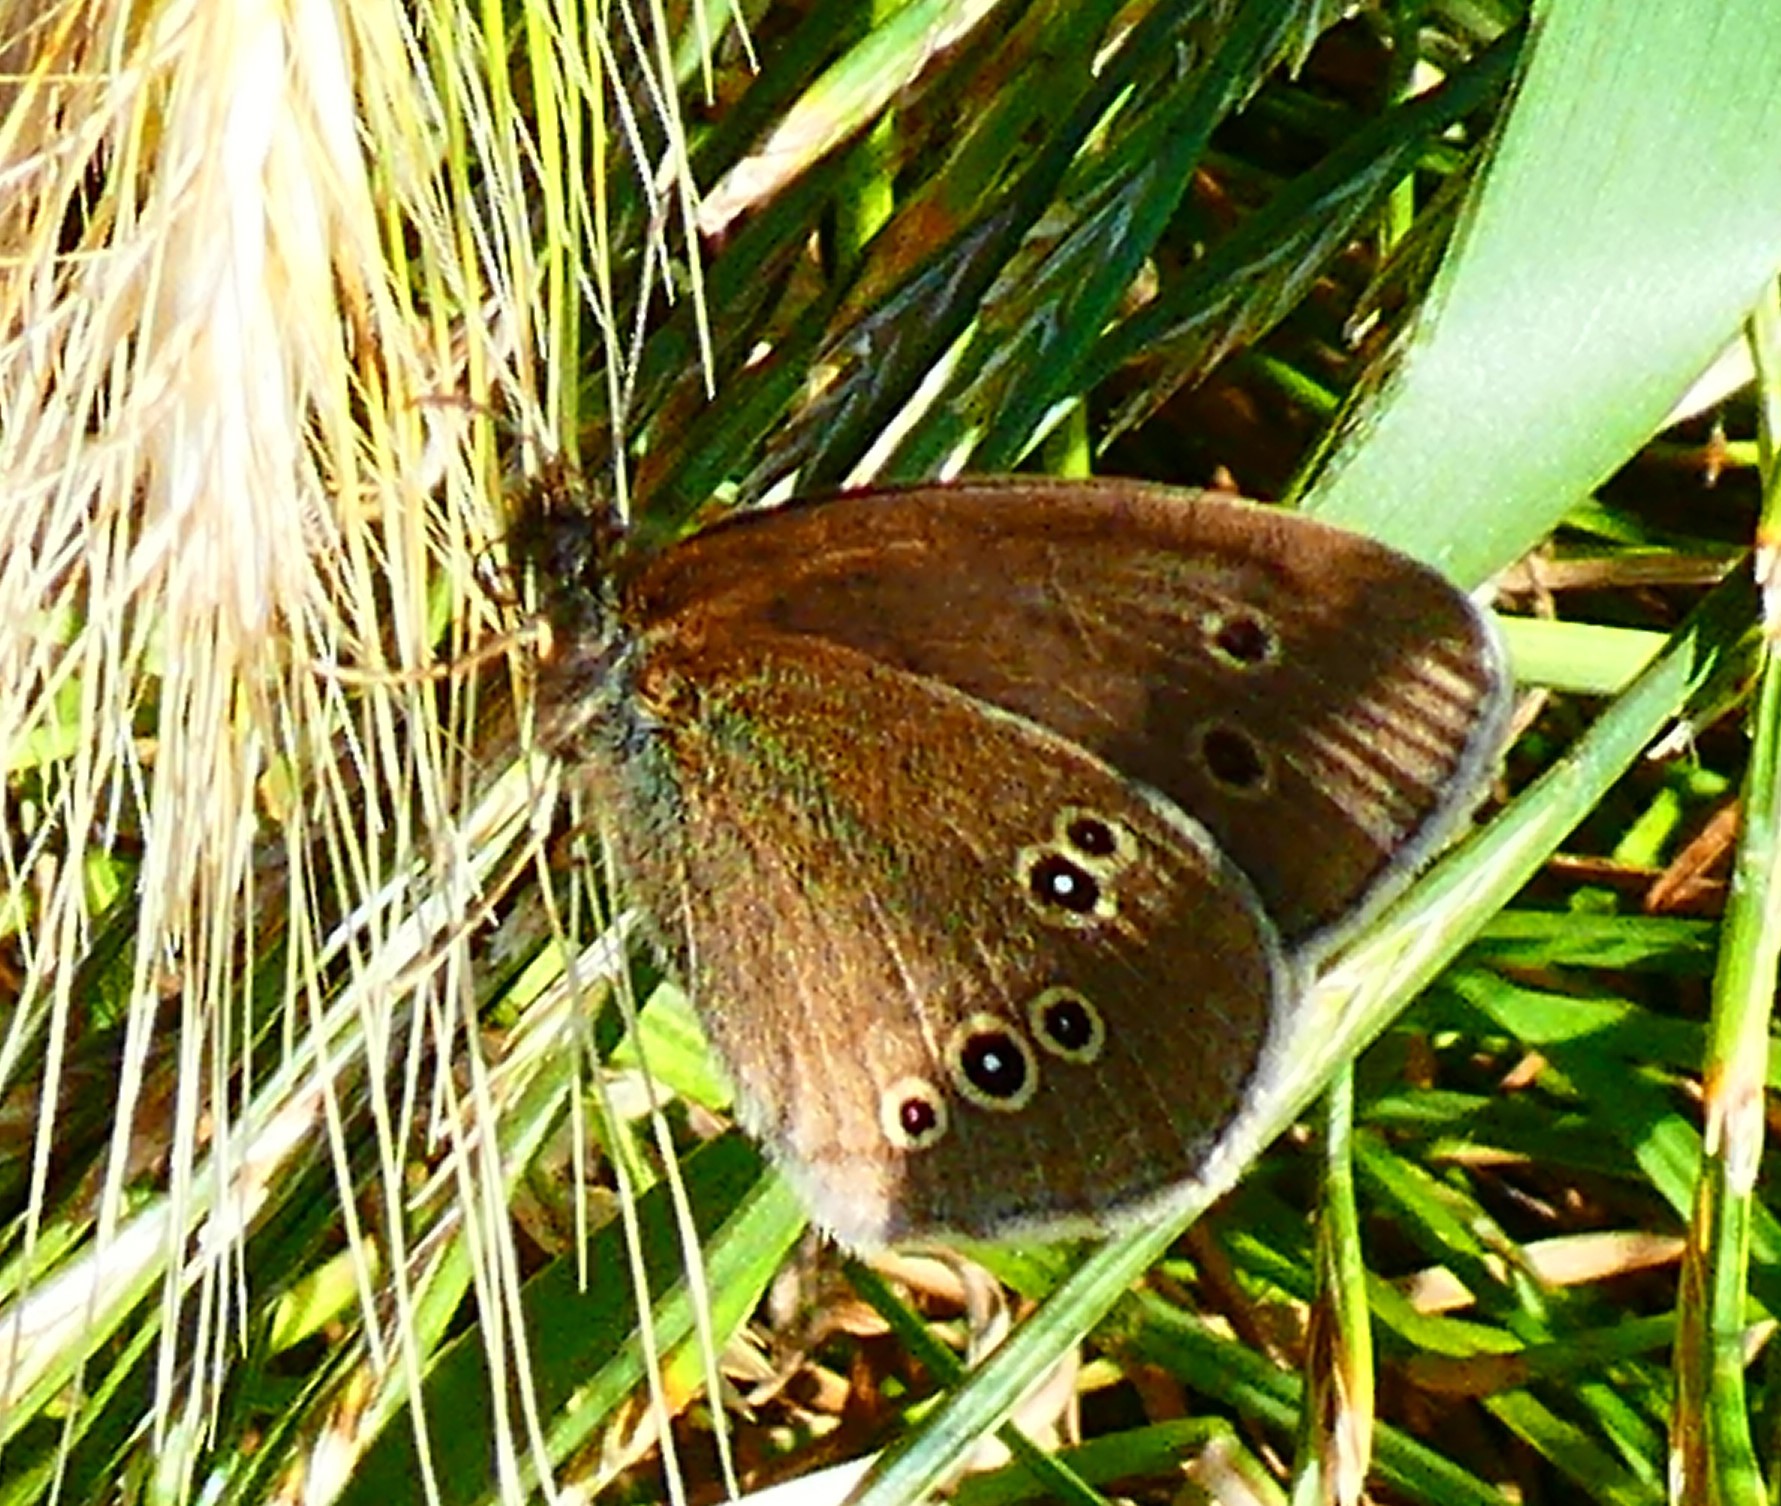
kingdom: Animalia
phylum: Arthropoda
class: Insecta
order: Lepidoptera
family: Nymphalidae
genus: Aphantopus
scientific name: Aphantopus hyperantus
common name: Ringlet
